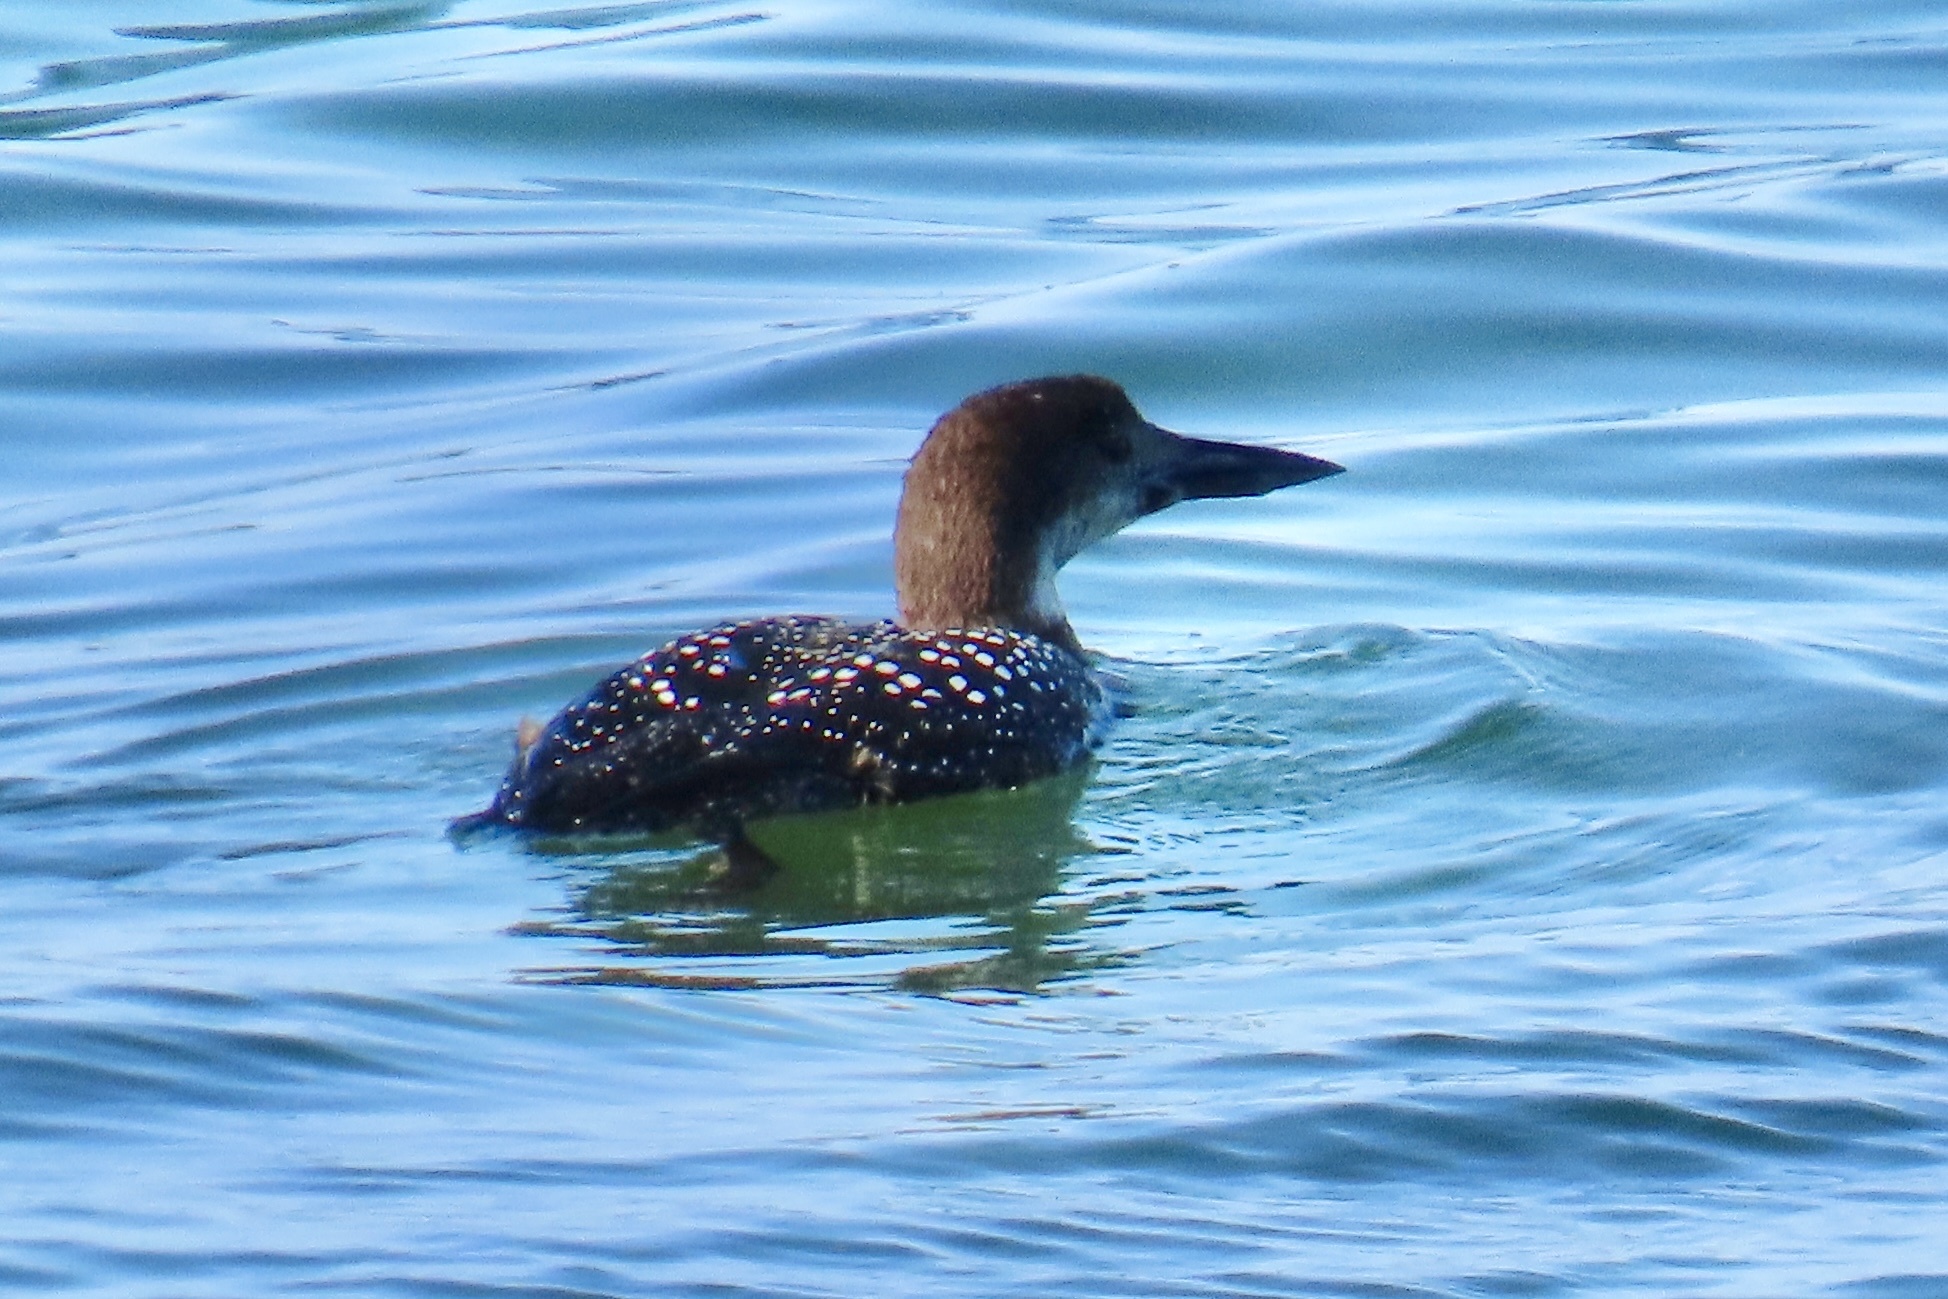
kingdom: Animalia
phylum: Chordata
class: Aves
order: Gaviiformes
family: Gaviidae
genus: Gavia
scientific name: Gavia immer
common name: Common loon
